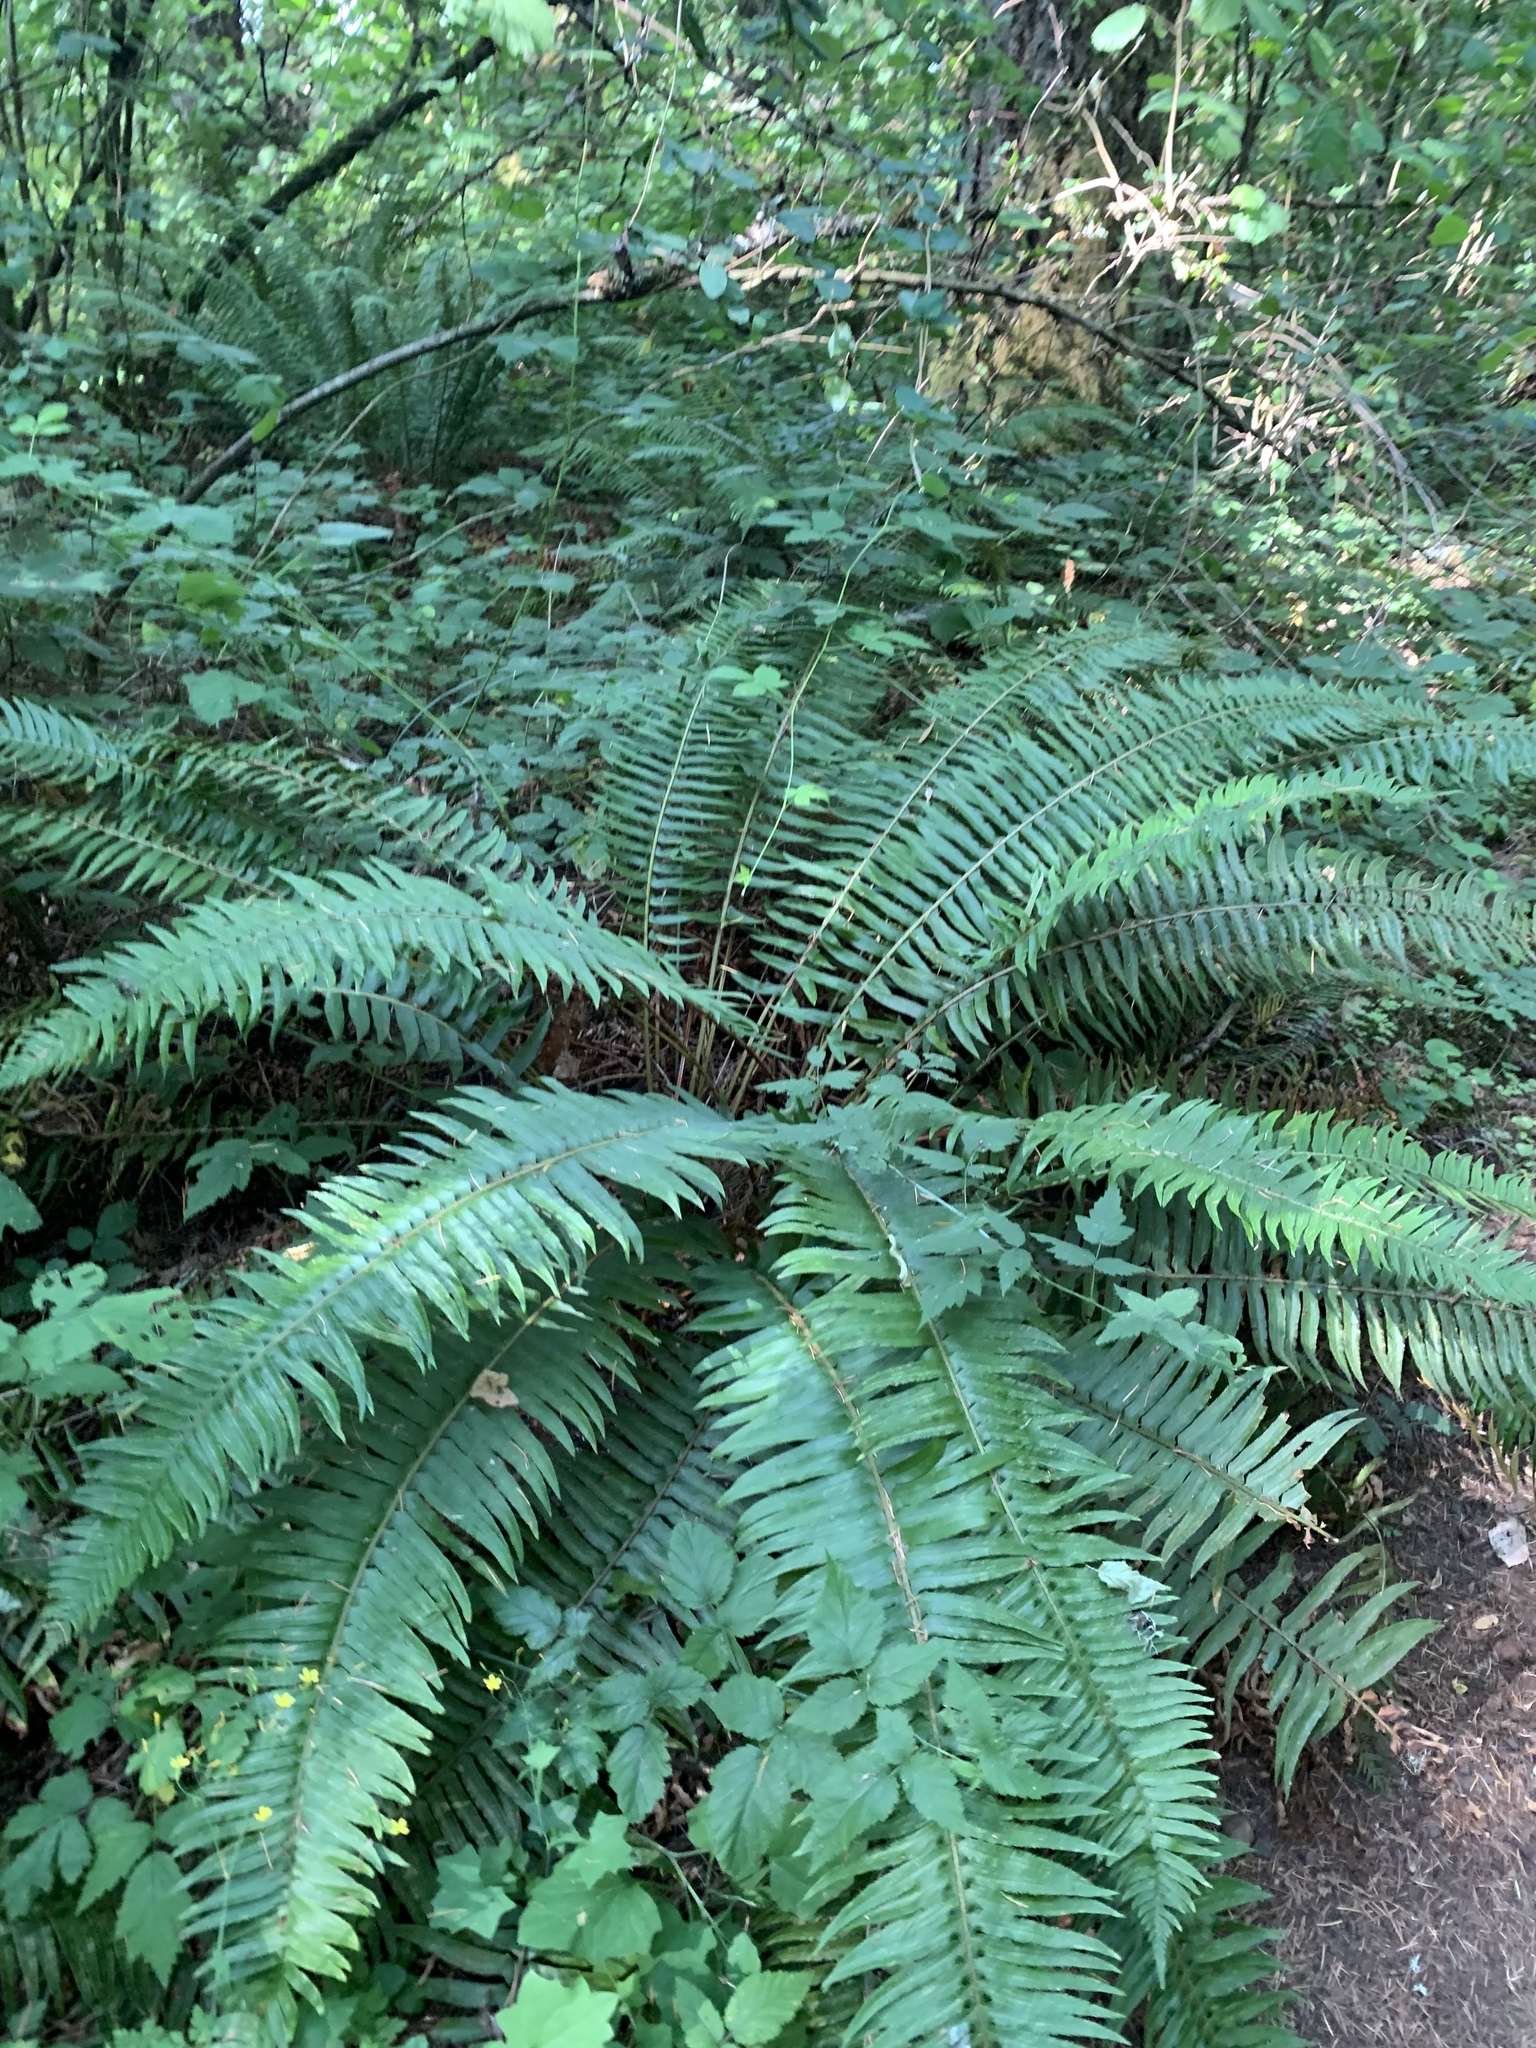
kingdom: Plantae
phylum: Tracheophyta
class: Polypodiopsida
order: Polypodiales
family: Dryopteridaceae
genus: Polystichum
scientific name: Polystichum munitum
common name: Western sword-fern
